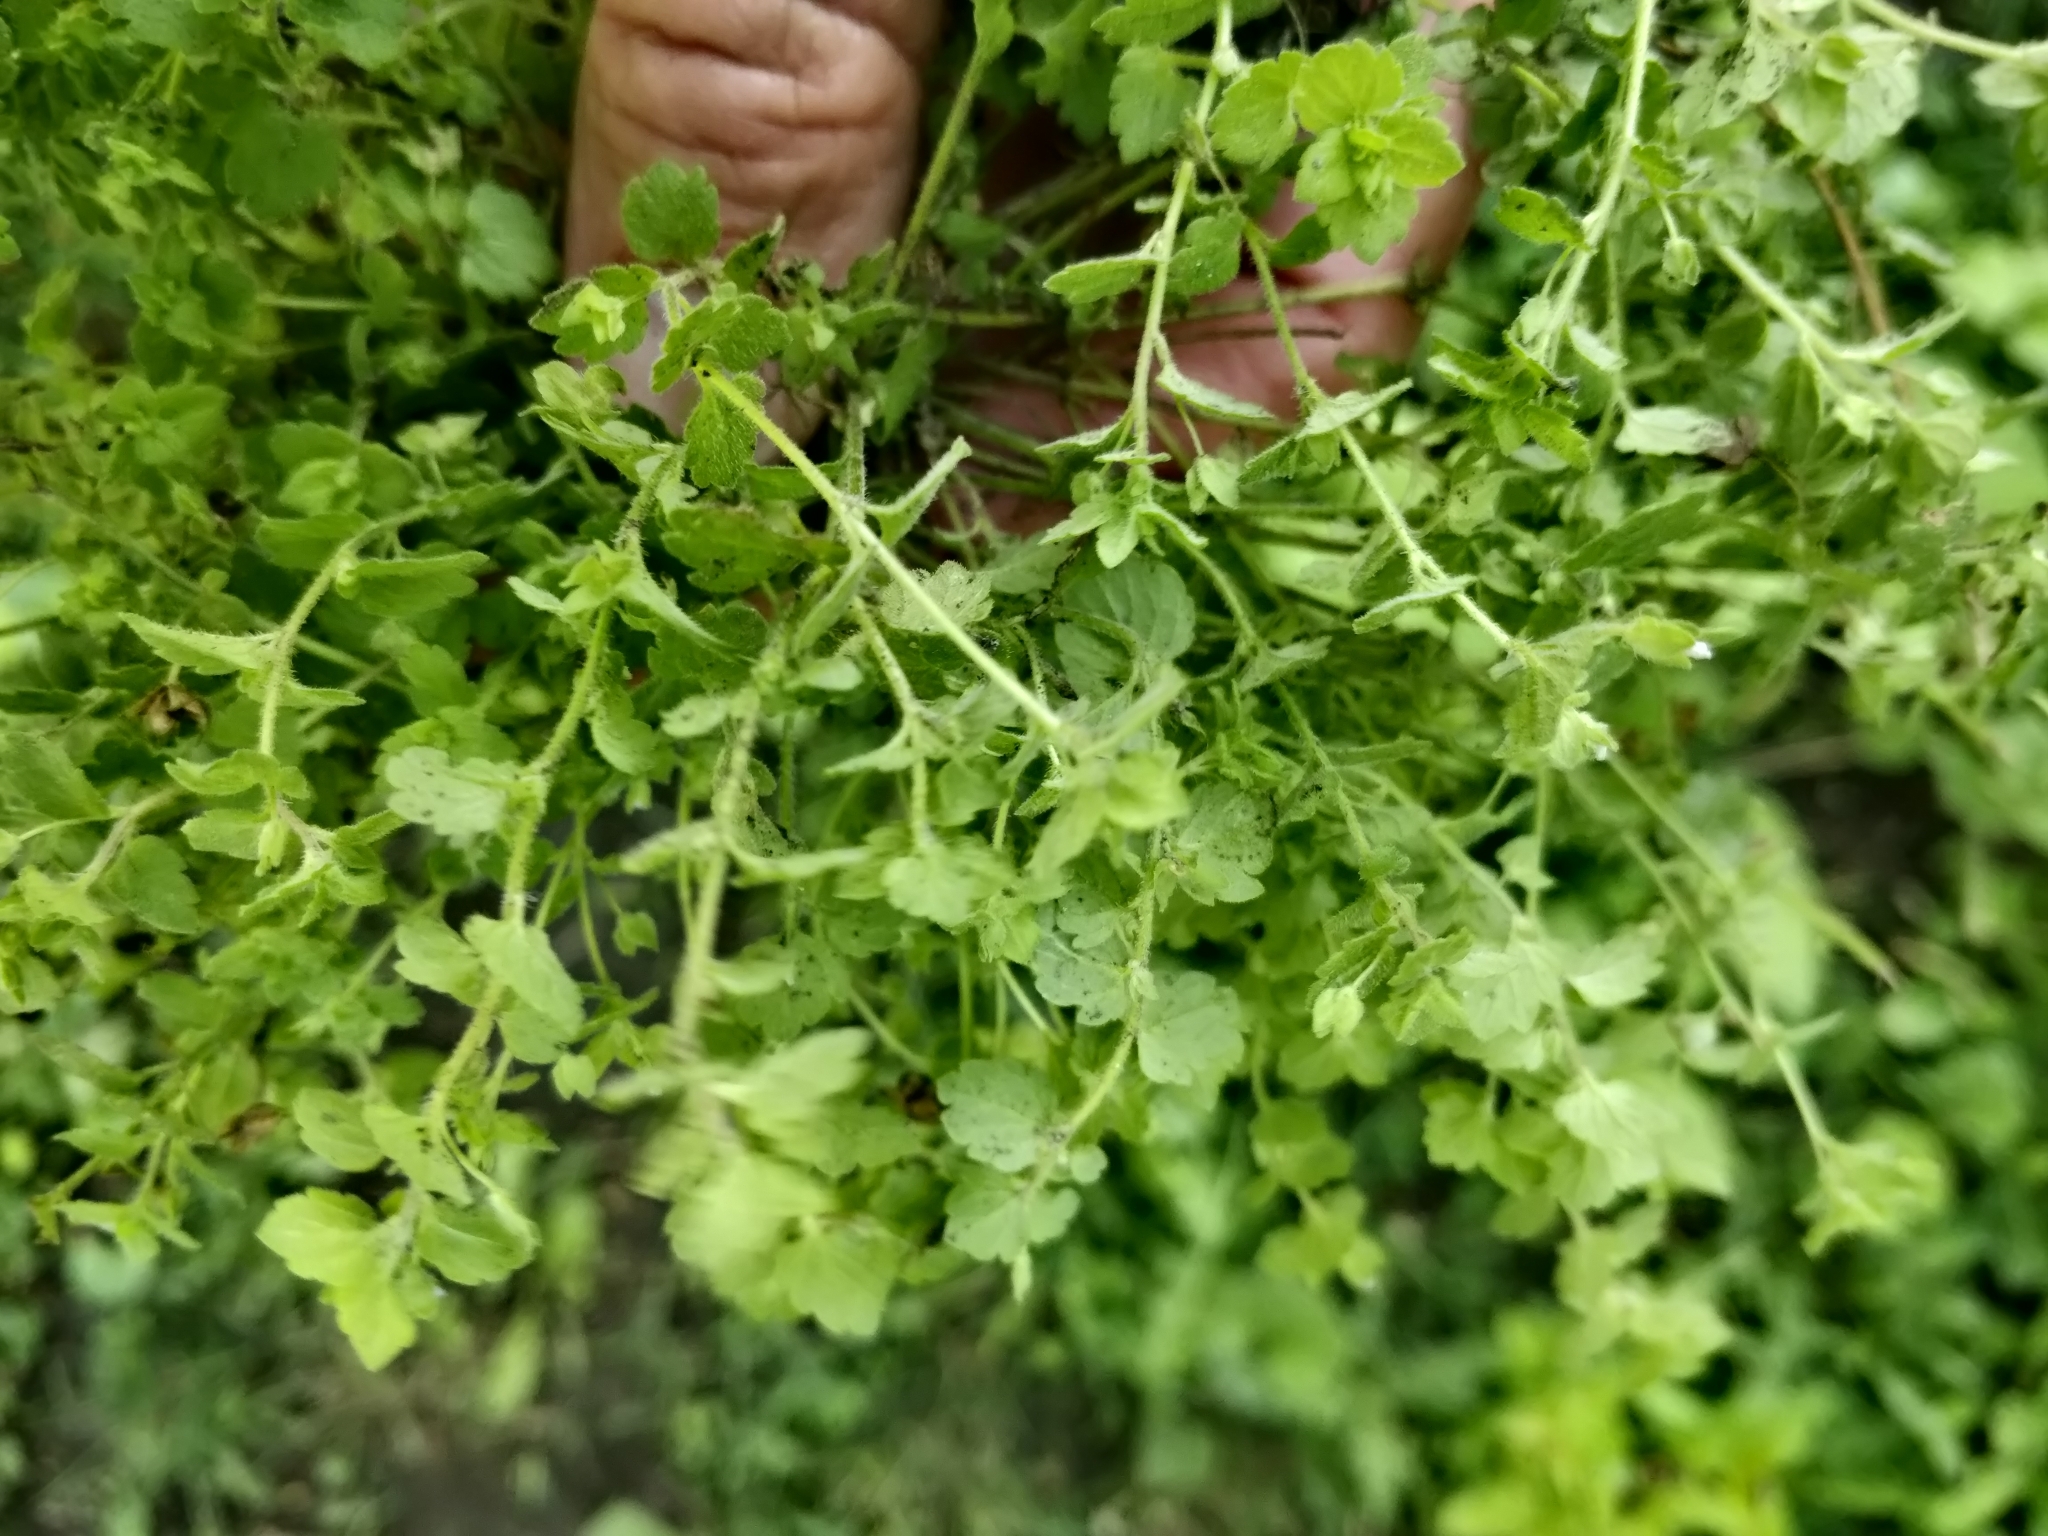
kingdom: Plantae
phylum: Tracheophyta
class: Magnoliopsida
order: Lamiales
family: Plantaginaceae
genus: Veronica
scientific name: Veronica polita
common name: Grey field-speedwell
